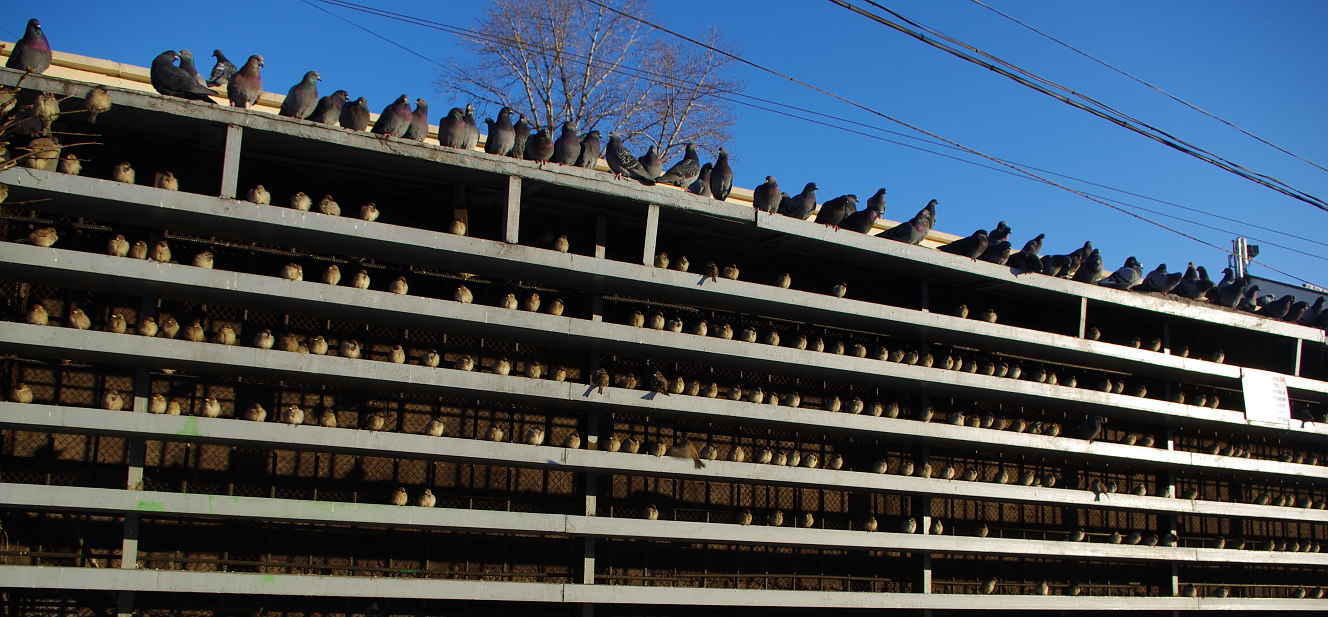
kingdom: Animalia
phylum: Chordata
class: Aves
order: Passeriformes
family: Passeridae
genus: Passer
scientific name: Passer domesticus
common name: House sparrow
